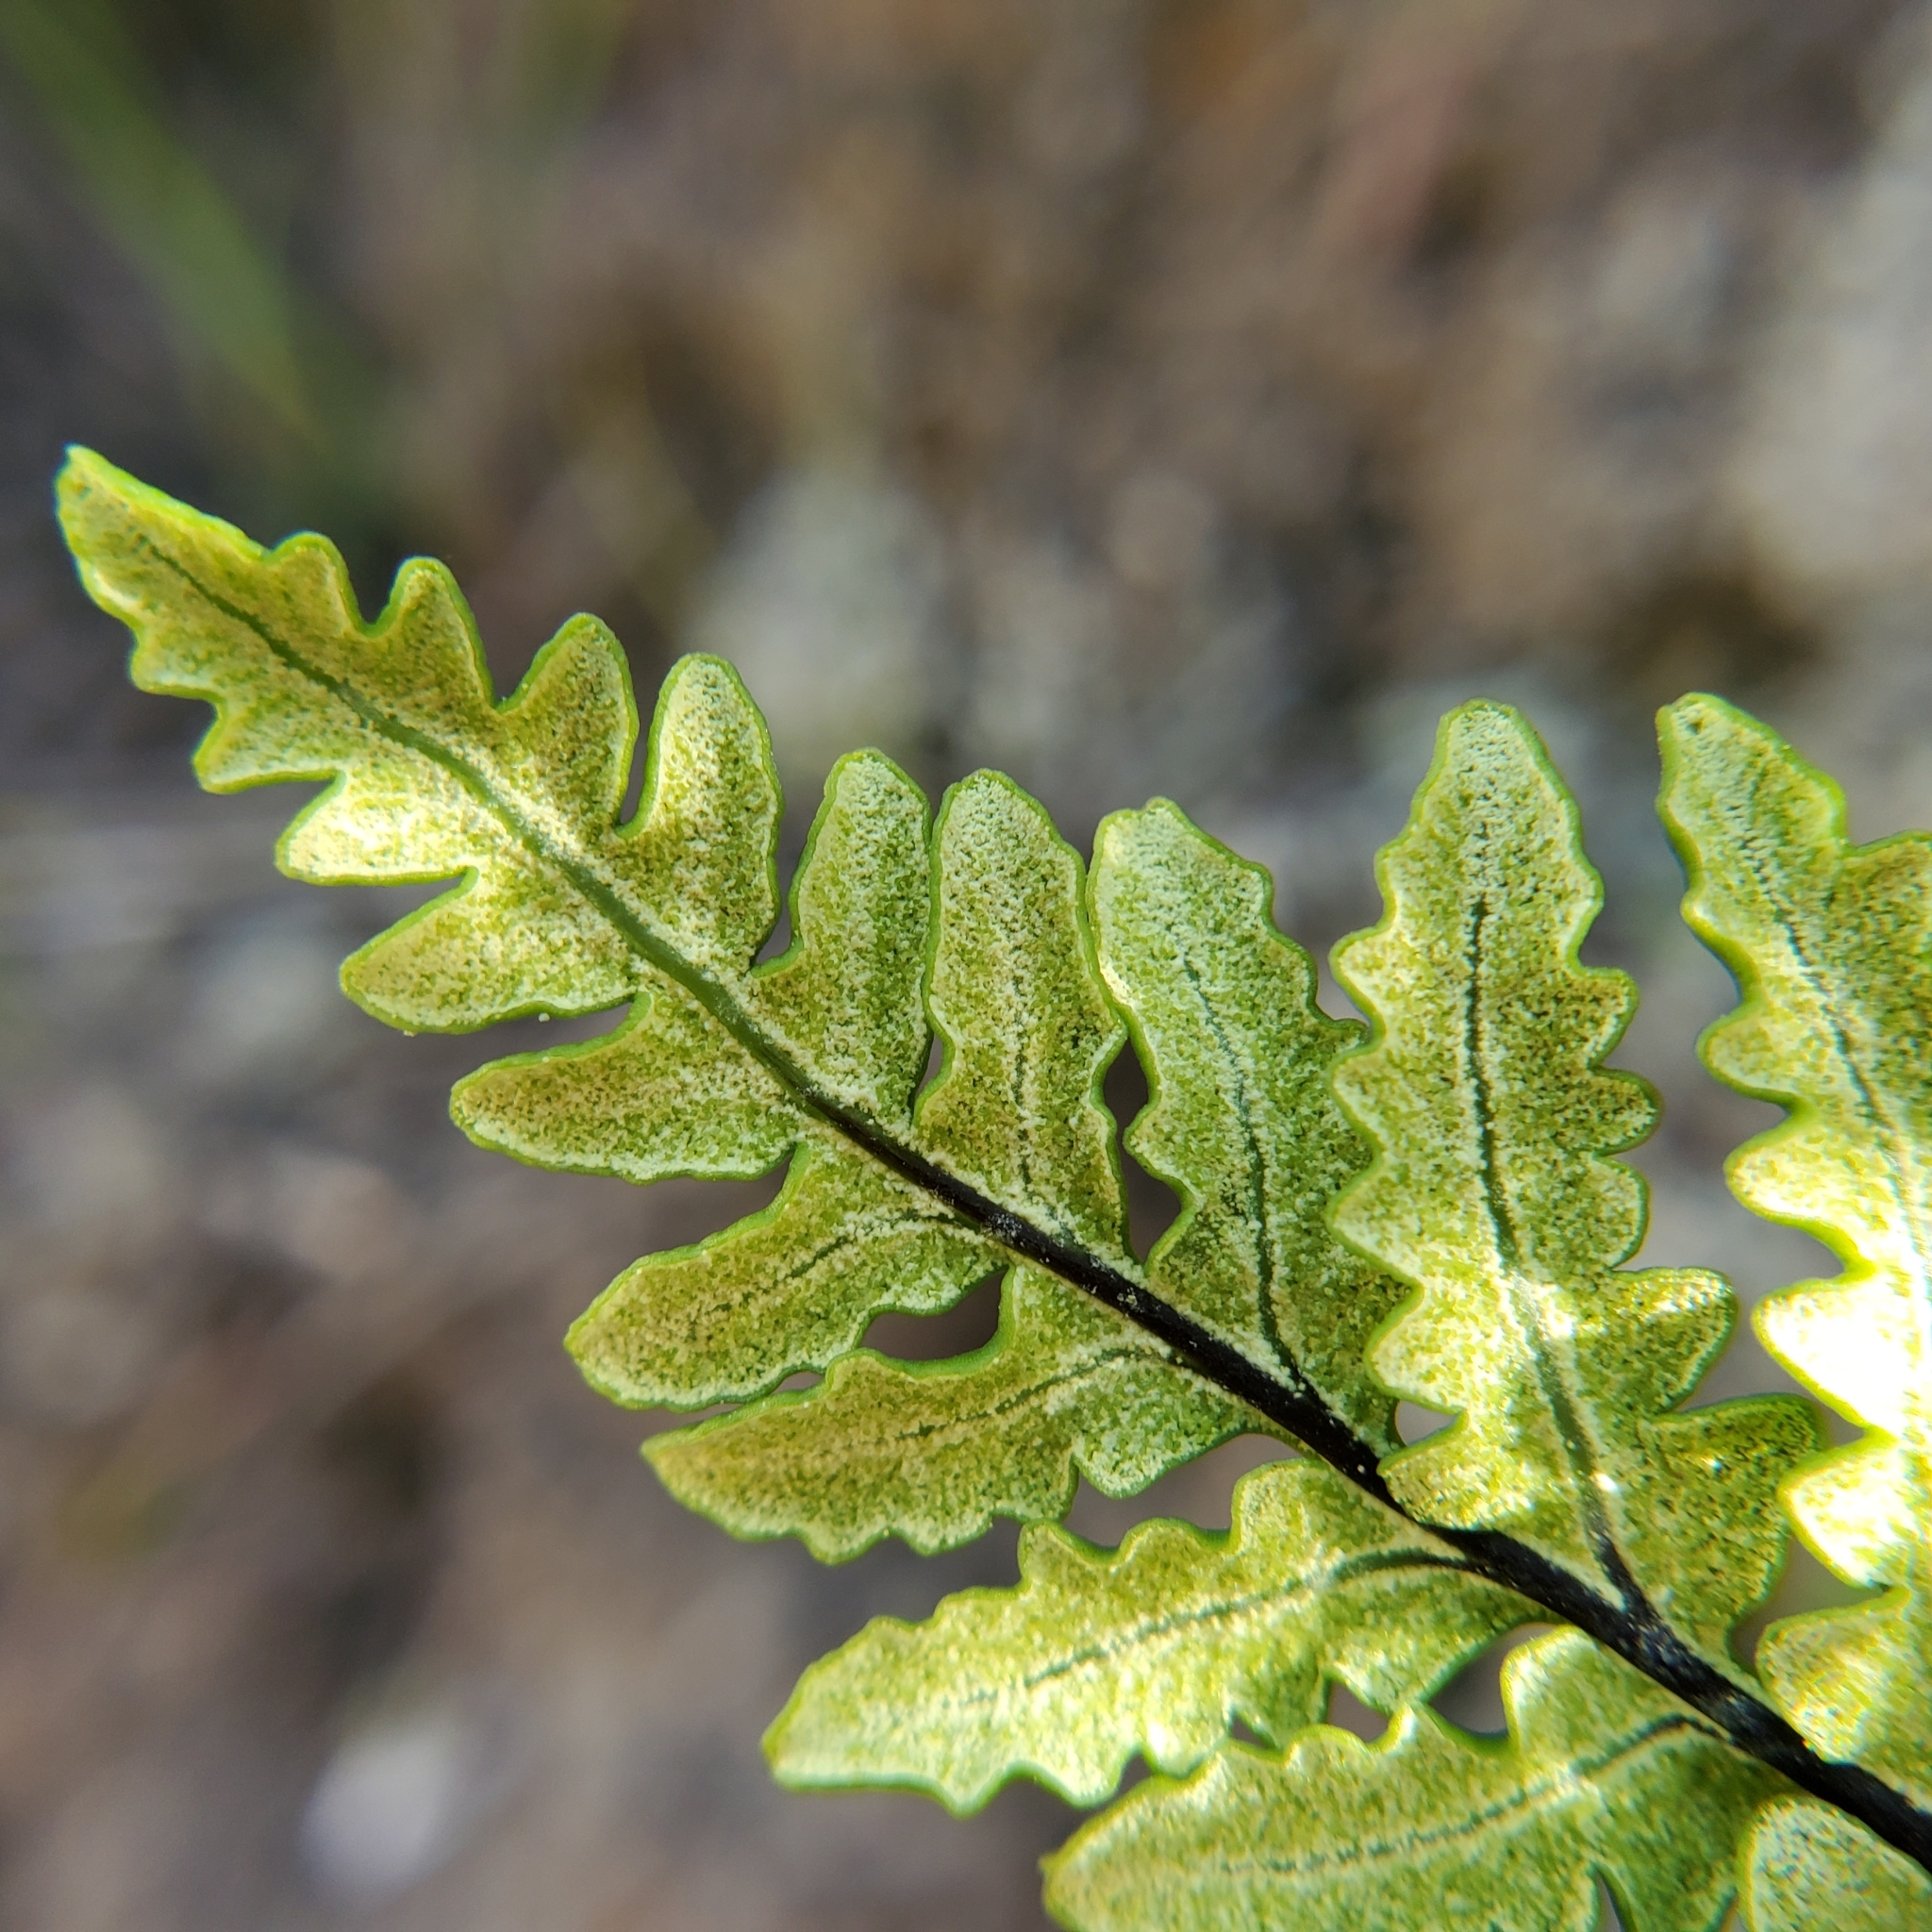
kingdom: Plantae
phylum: Tracheophyta
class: Polypodiopsida
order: Polypodiales
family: Pteridaceae
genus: Pentagramma
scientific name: Pentagramma triangularis
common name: Gold fern
